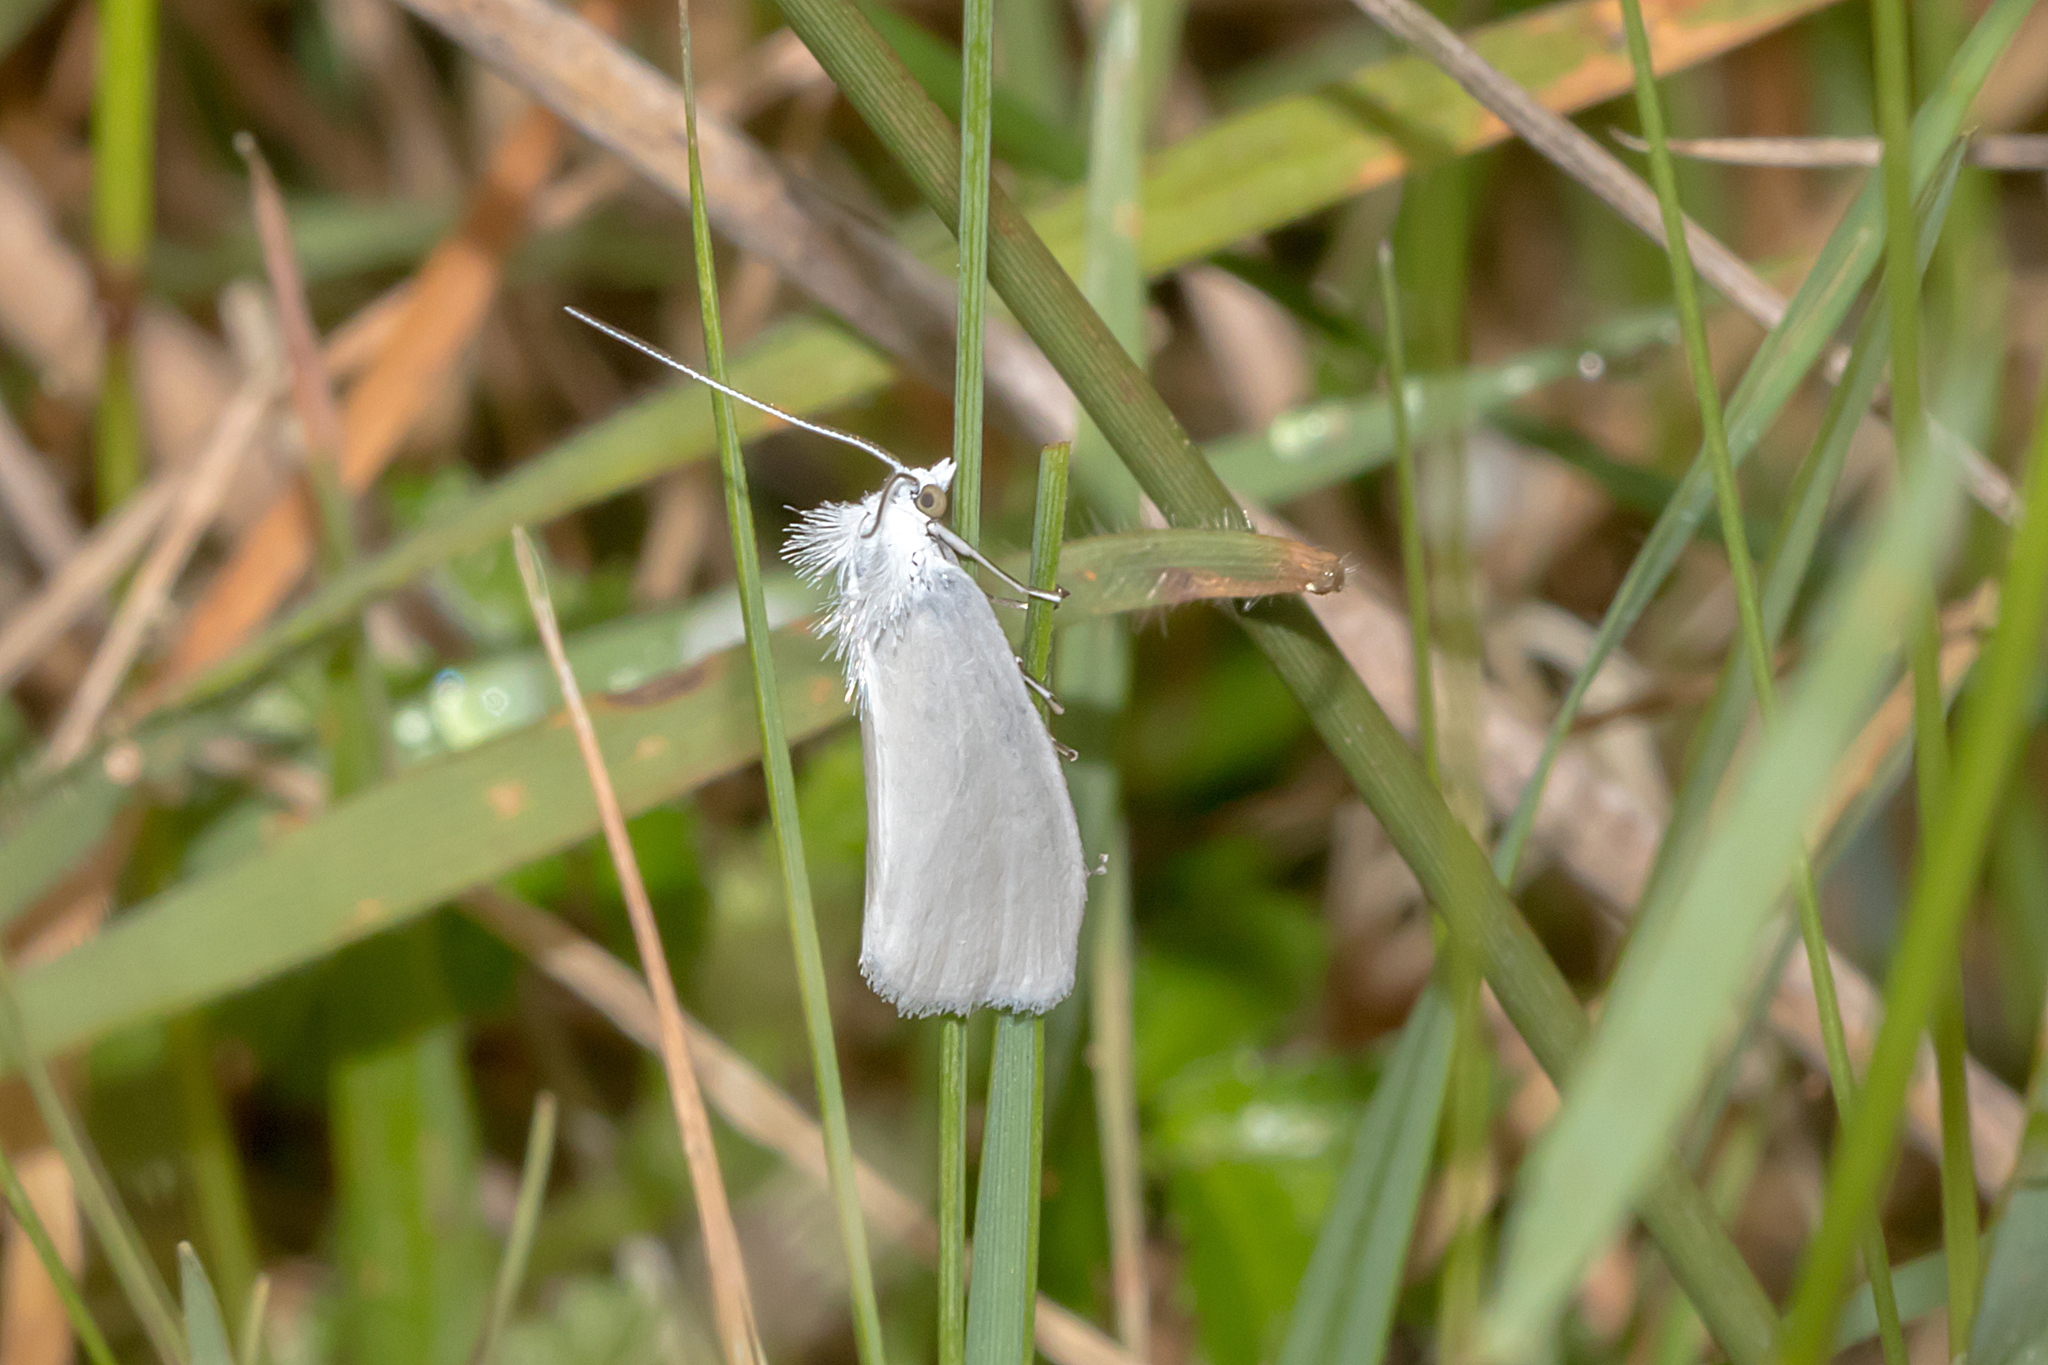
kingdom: Animalia
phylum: Arthropoda
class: Insecta
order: Lepidoptera
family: Crambidae
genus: Tipanaea
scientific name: Tipanaea patulella
